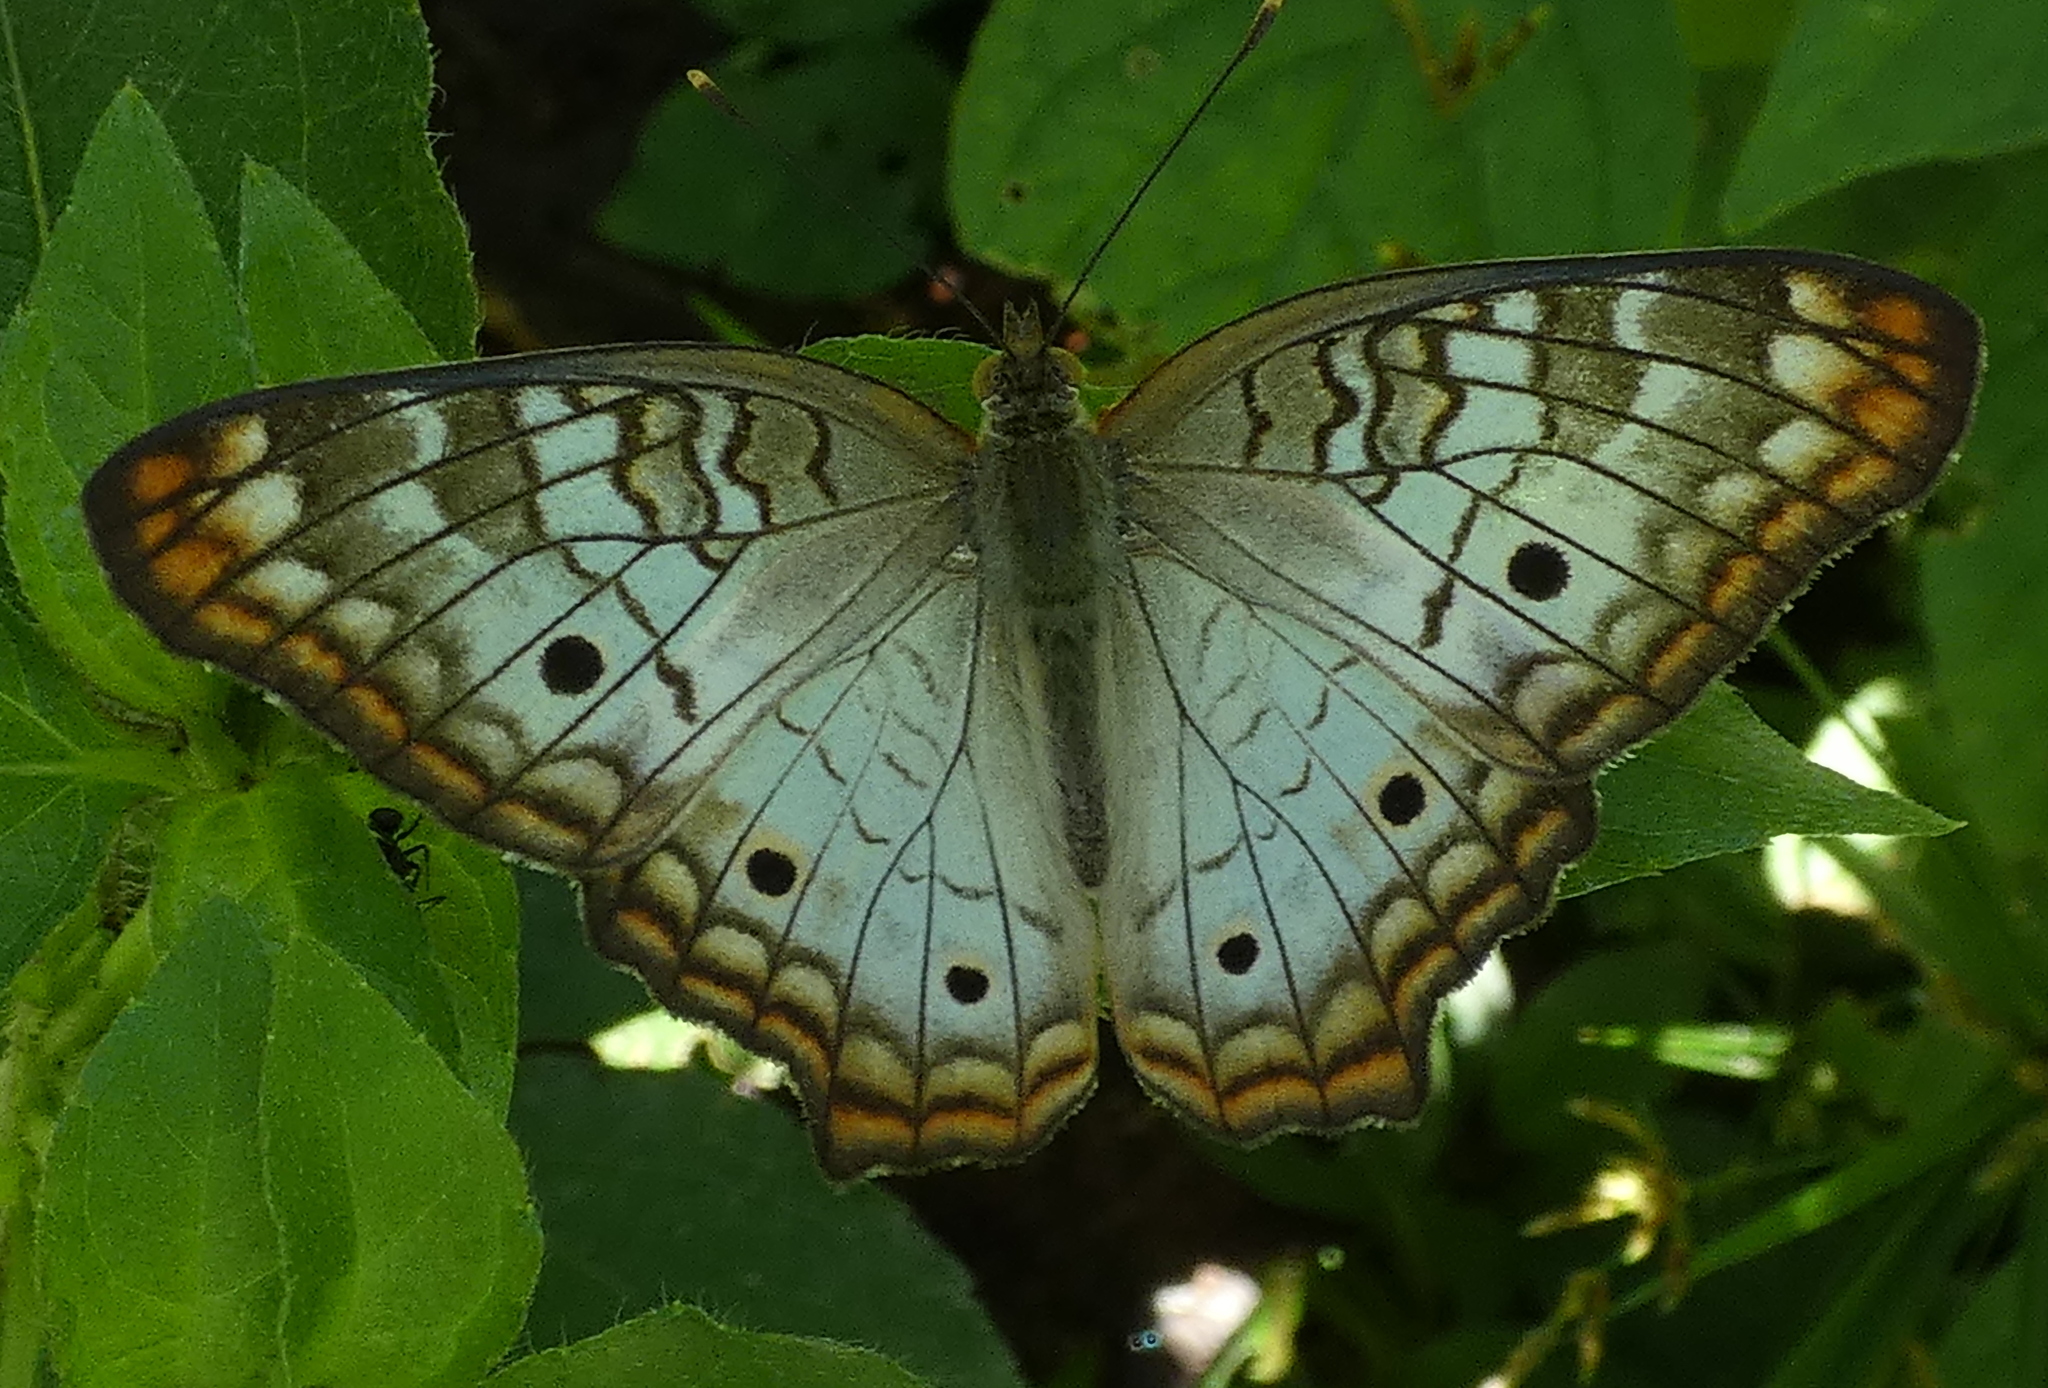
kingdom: Animalia
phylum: Arthropoda
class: Insecta
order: Lepidoptera
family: Nymphalidae
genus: Anartia
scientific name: Anartia jatrophae
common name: White peacock
